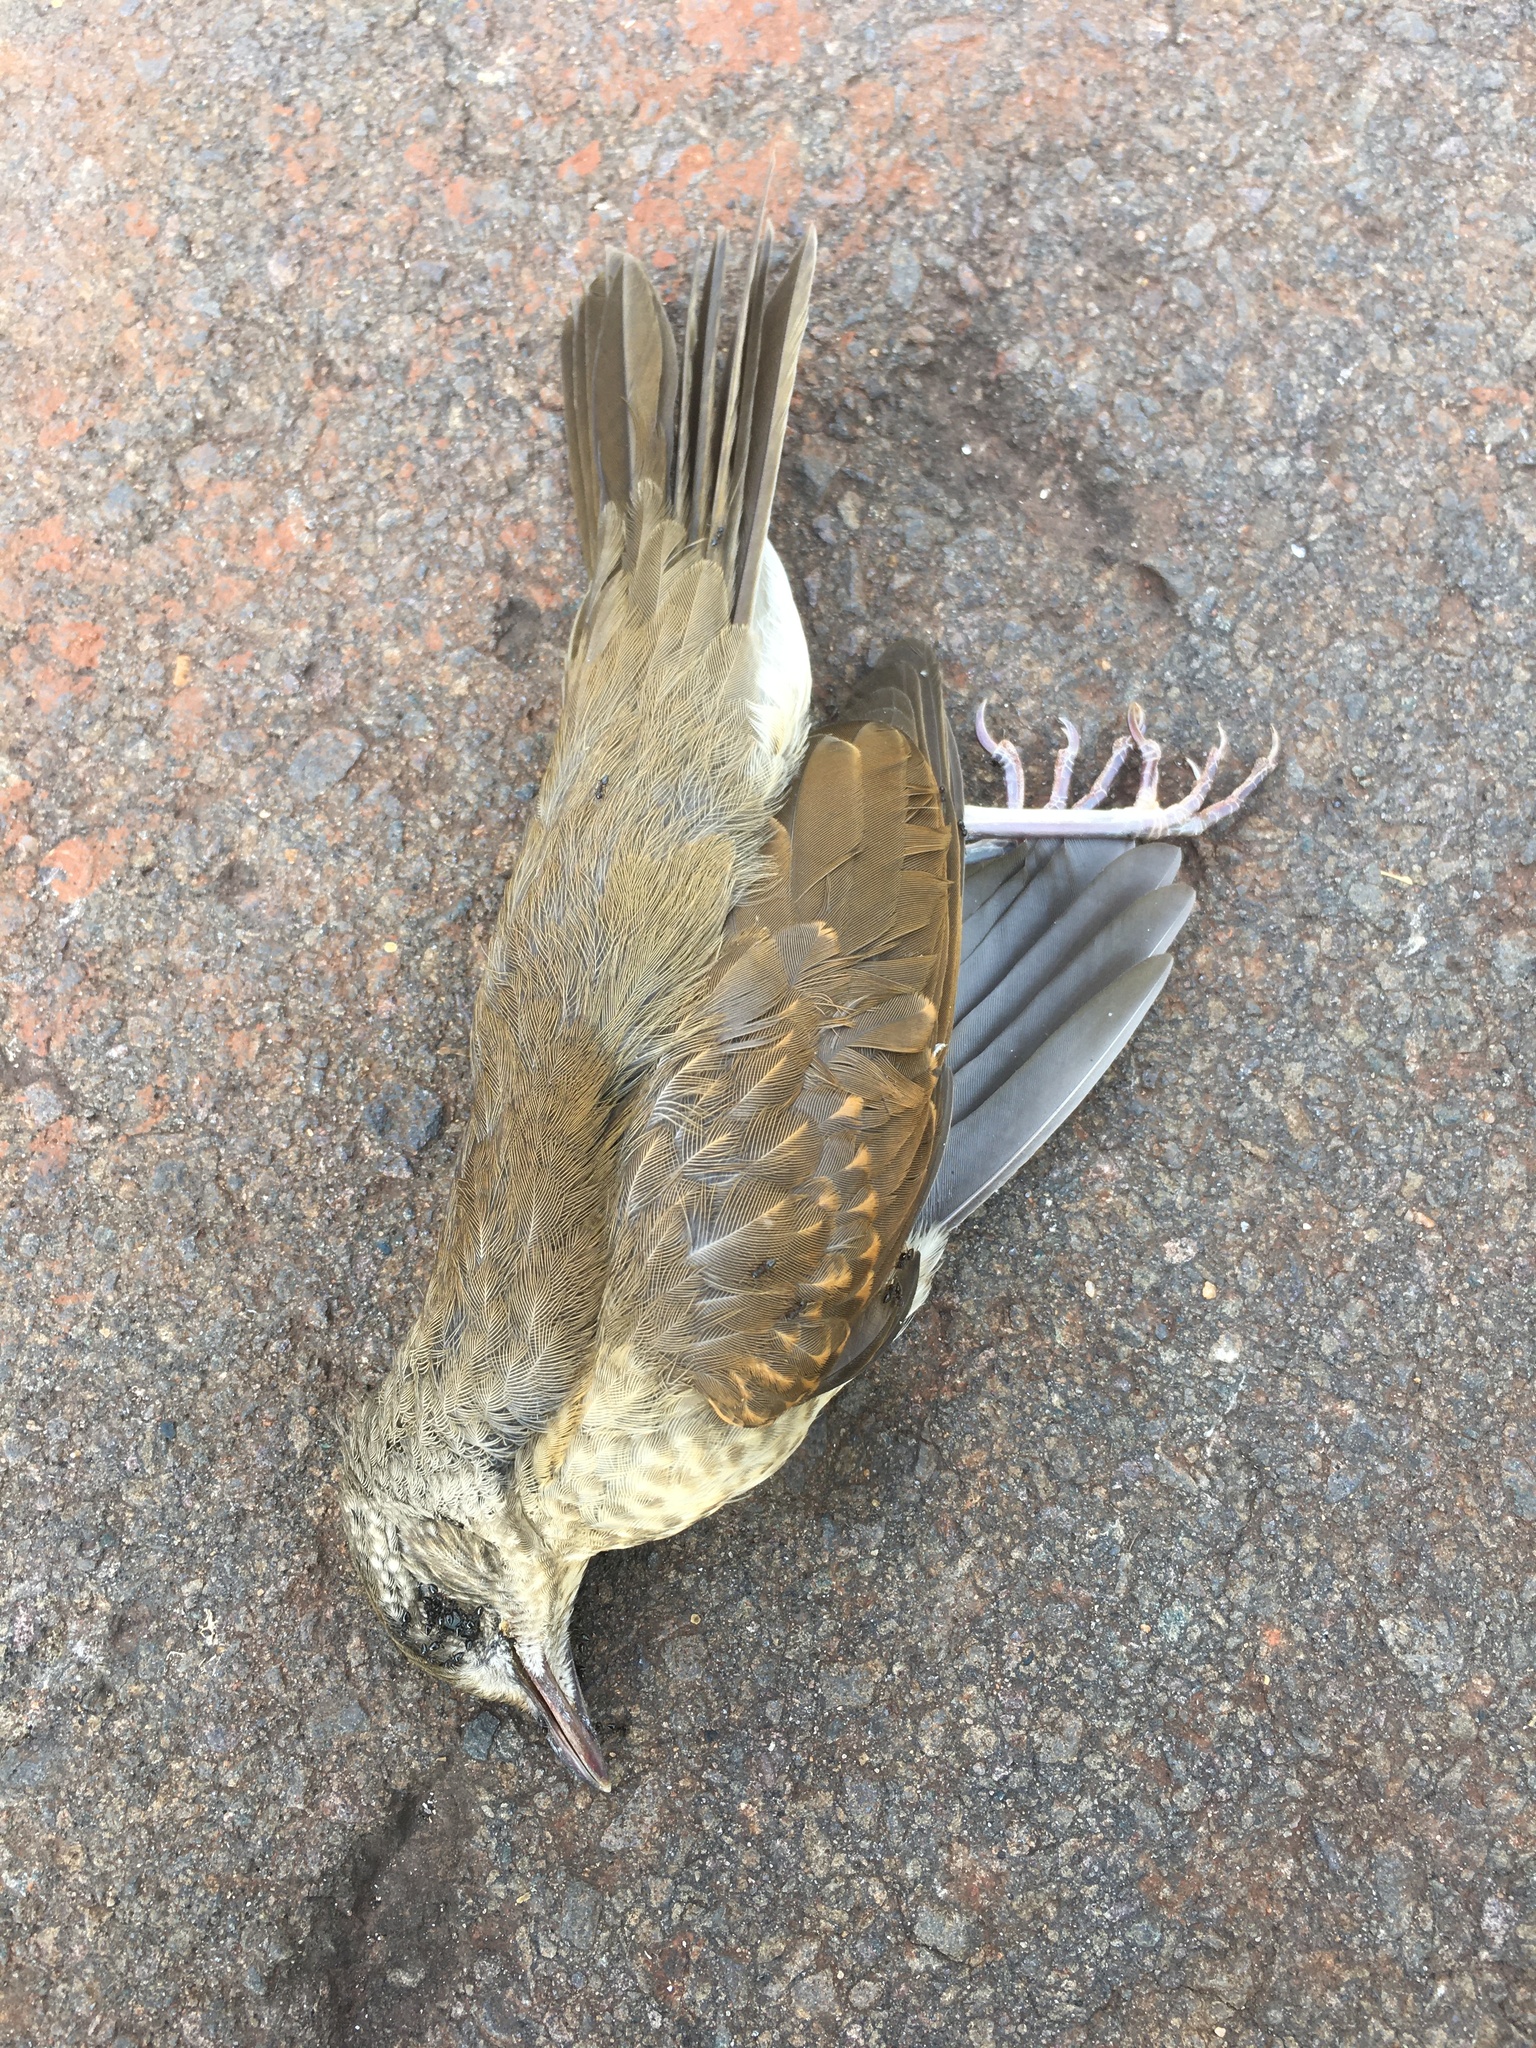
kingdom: Animalia
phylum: Chordata
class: Aves
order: Passeriformes
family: Turdidae
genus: Turdus
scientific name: Turdus leucomelas
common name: Pale-breasted thrush
